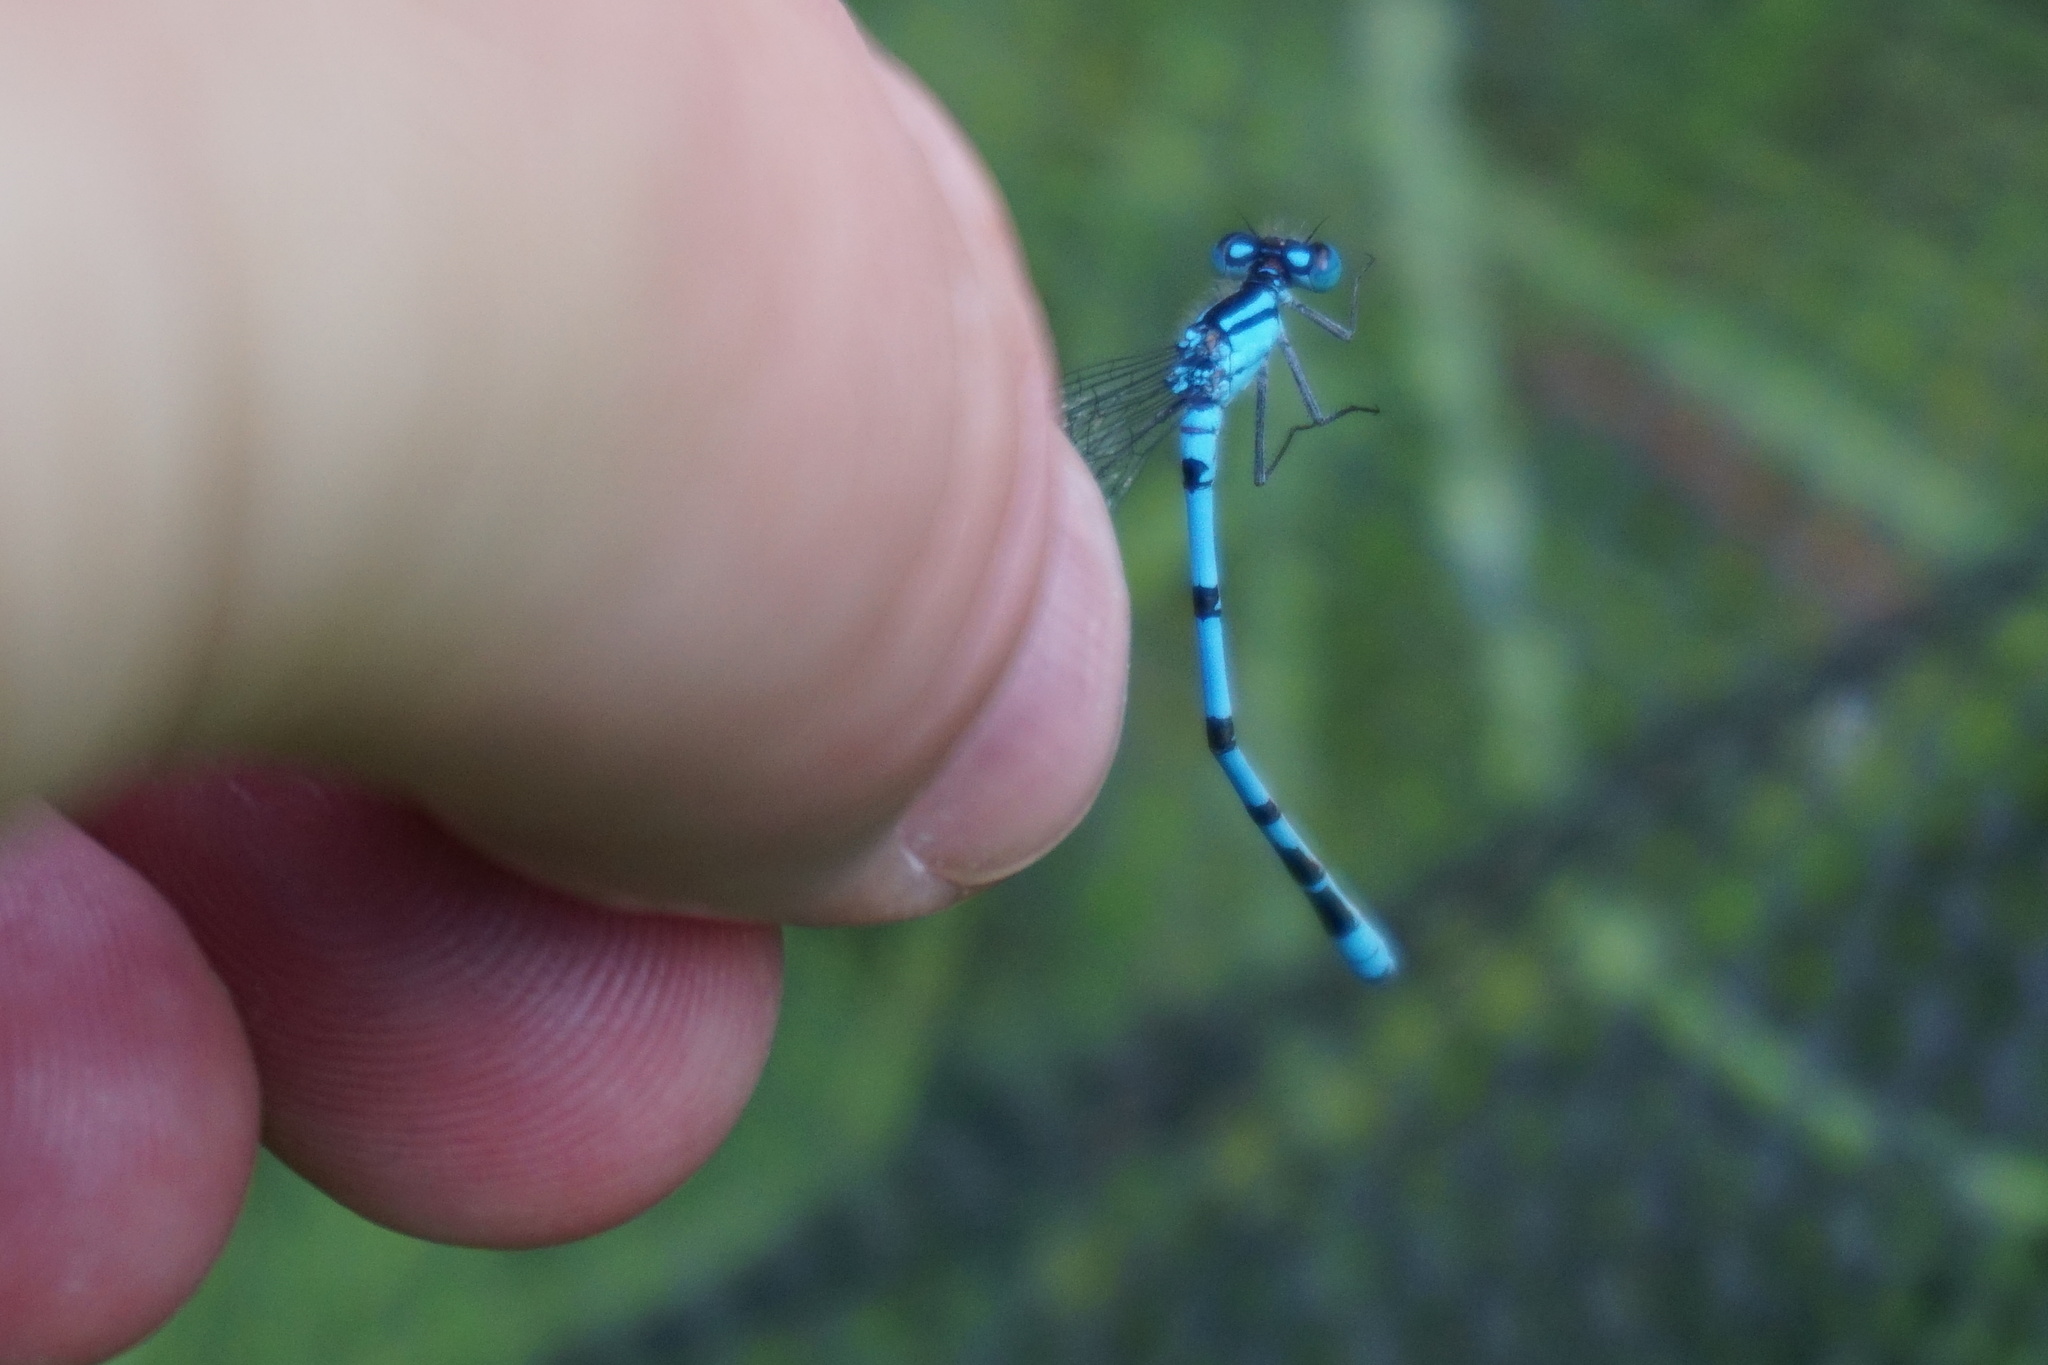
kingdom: Animalia
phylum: Arthropoda
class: Insecta
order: Odonata
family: Coenagrionidae
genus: Enallagma
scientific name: Enallagma cyathigerum
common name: Common blue damselfly
